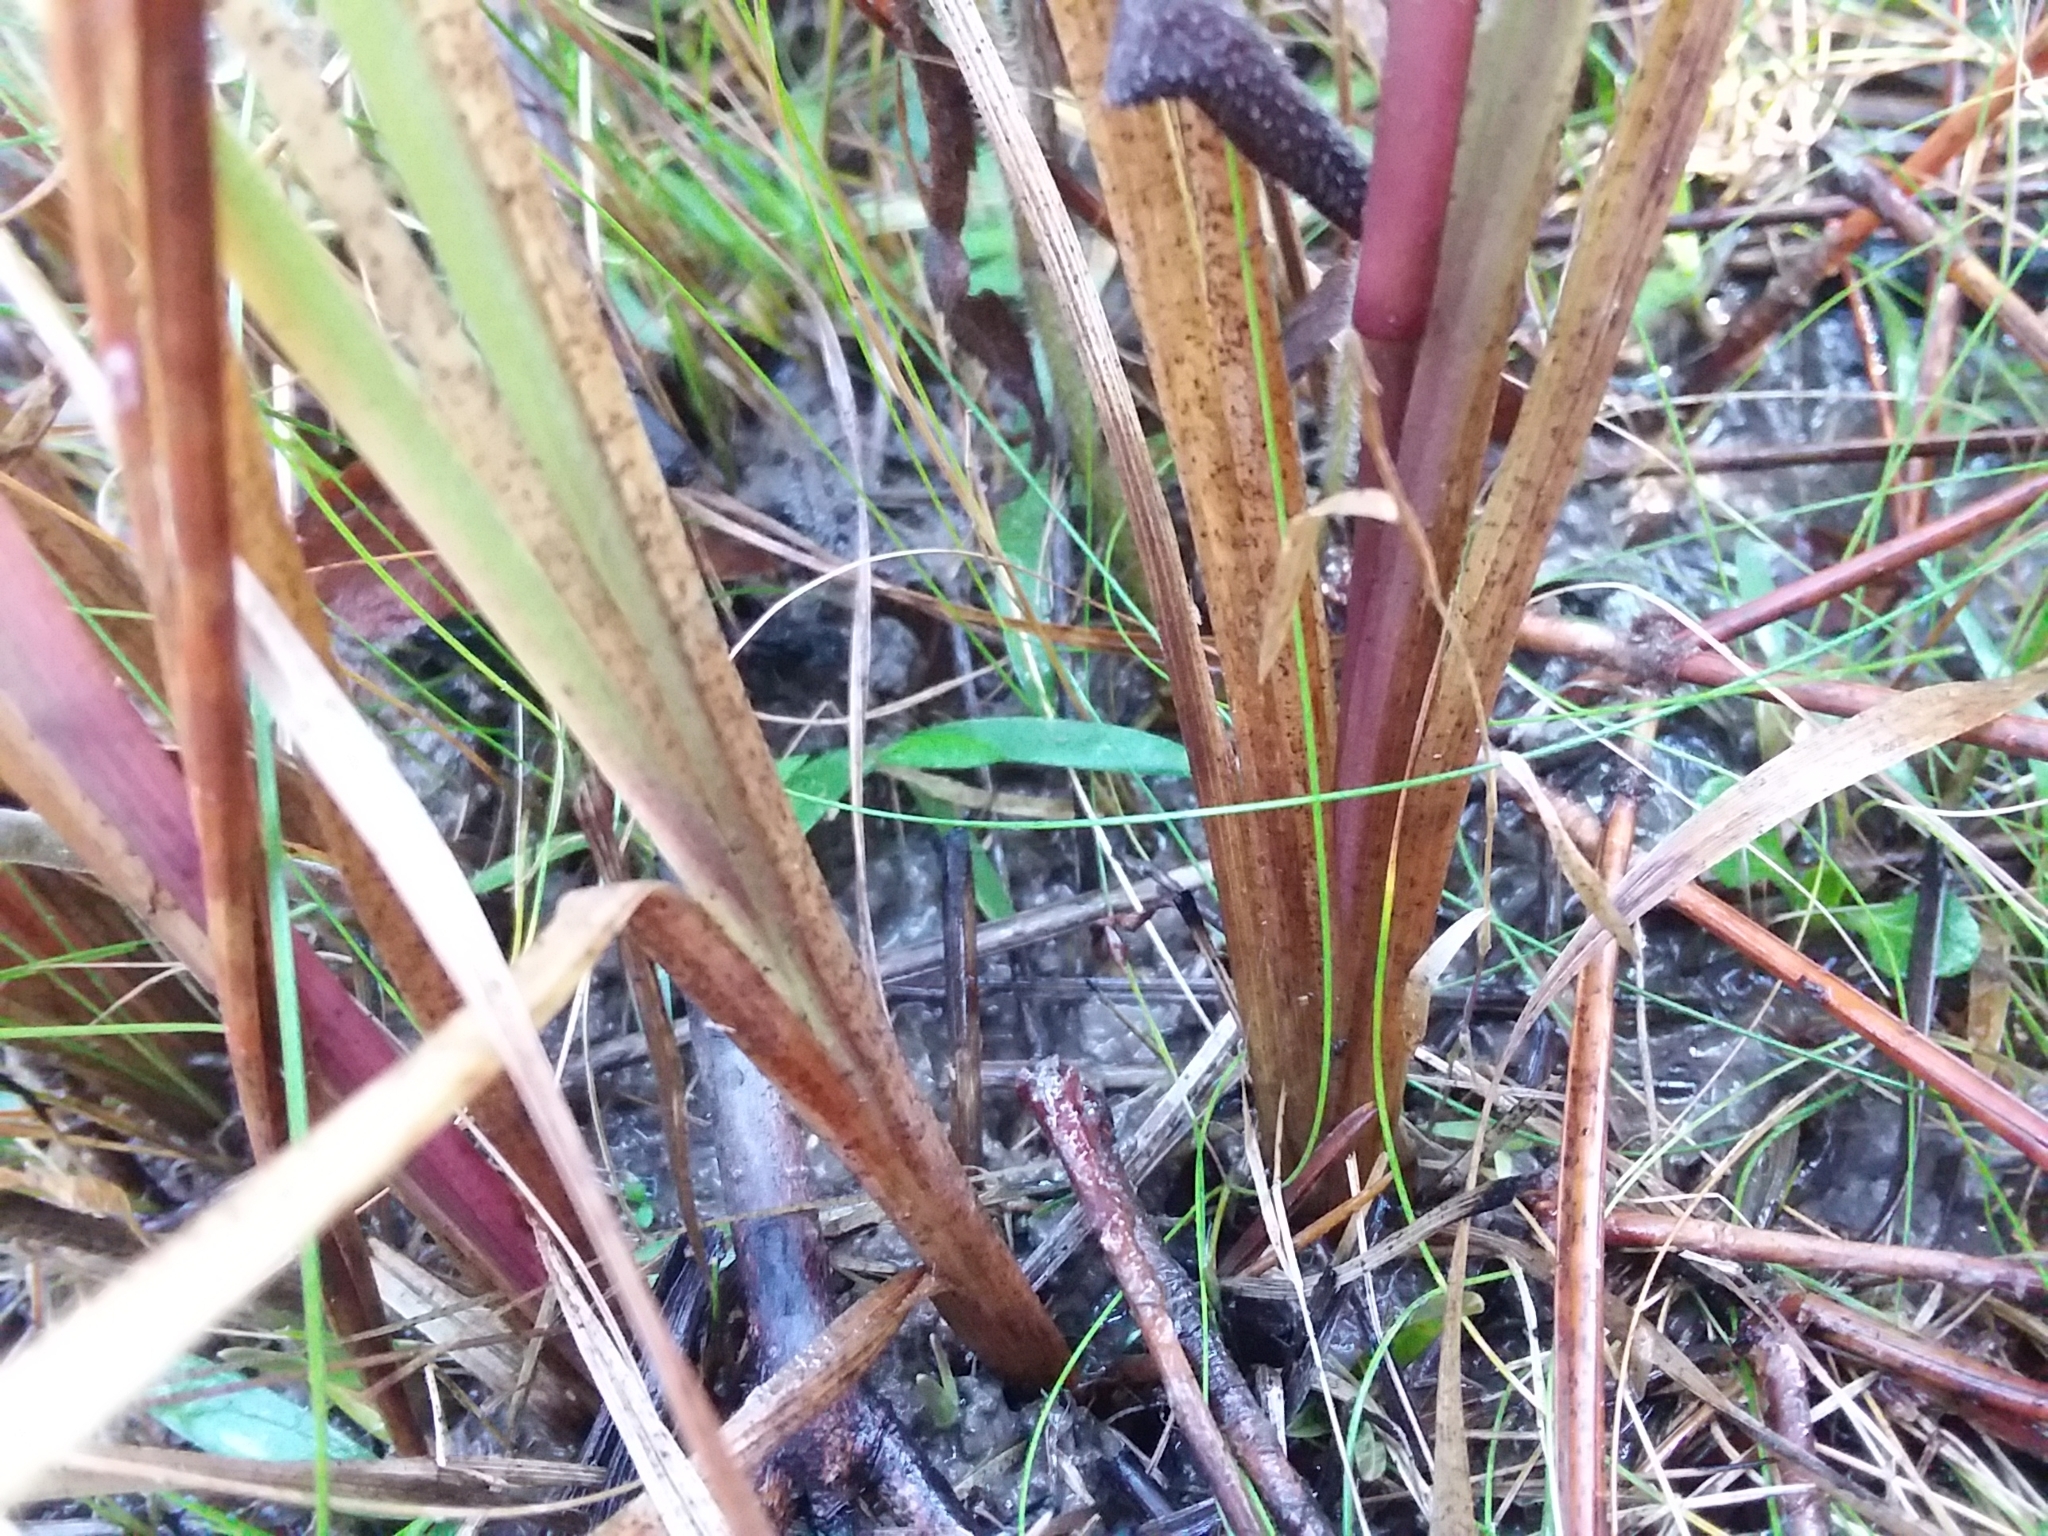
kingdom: Plantae
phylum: Tracheophyta
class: Liliopsida
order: Poales
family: Poaceae
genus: Anthenantia
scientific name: Anthenantia rufa
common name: Purple silkyscale
